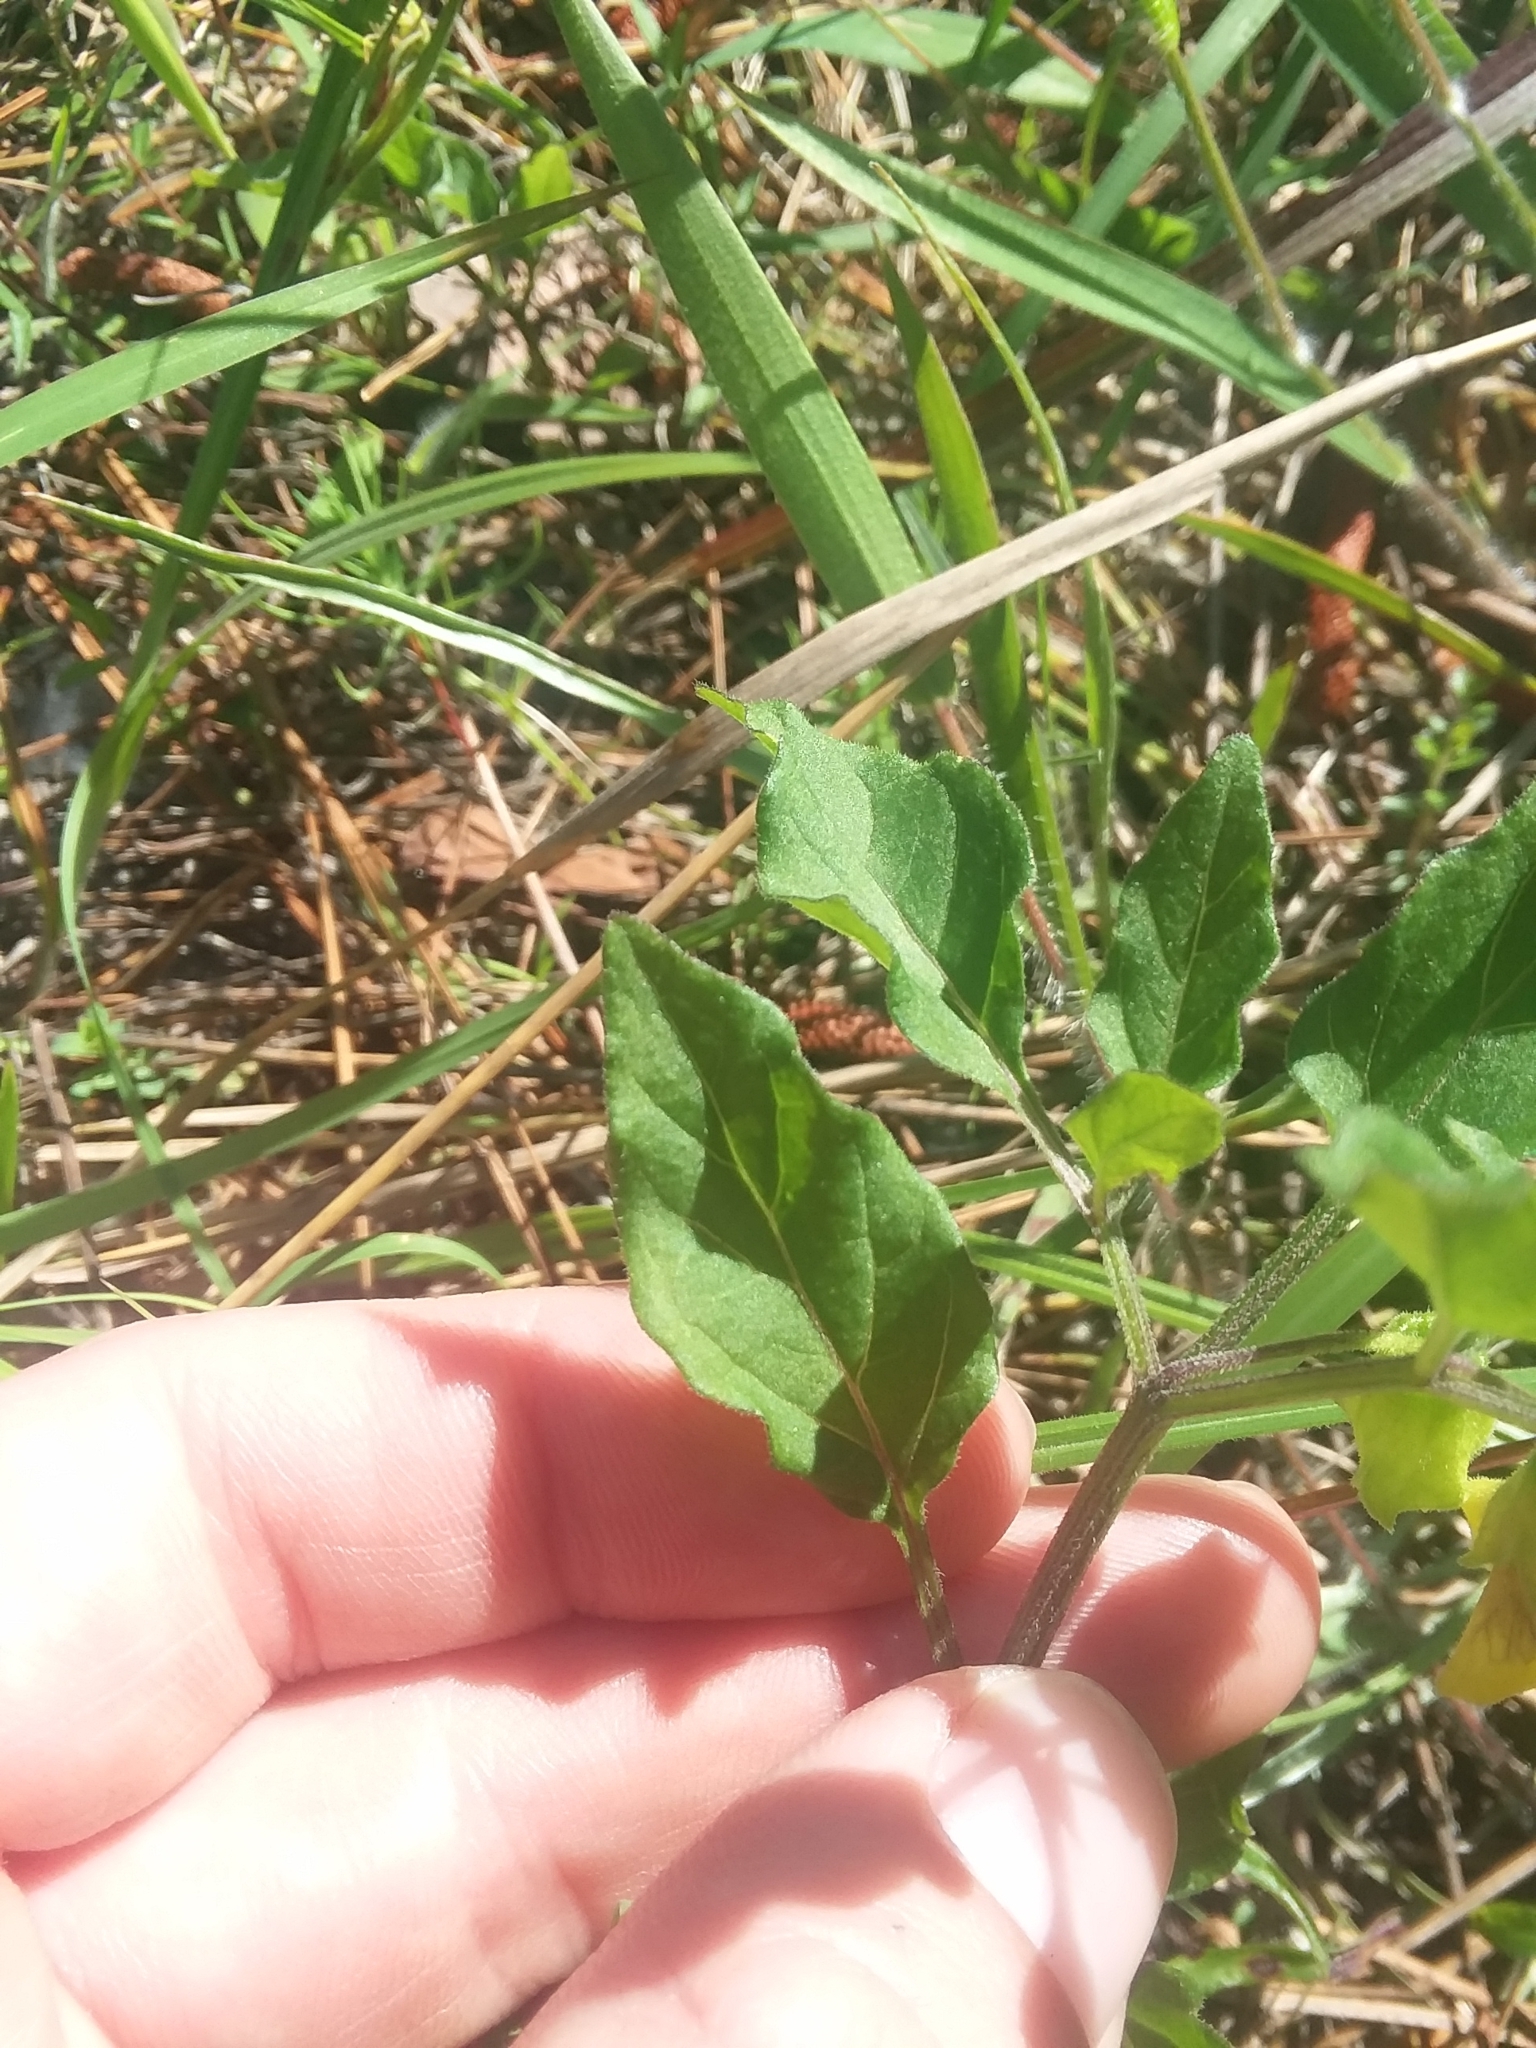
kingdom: Plantae
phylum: Tracheophyta
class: Magnoliopsida
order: Solanales
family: Solanaceae
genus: Physalis
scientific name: Physalis virginiana
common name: Virginia ground-cherry
